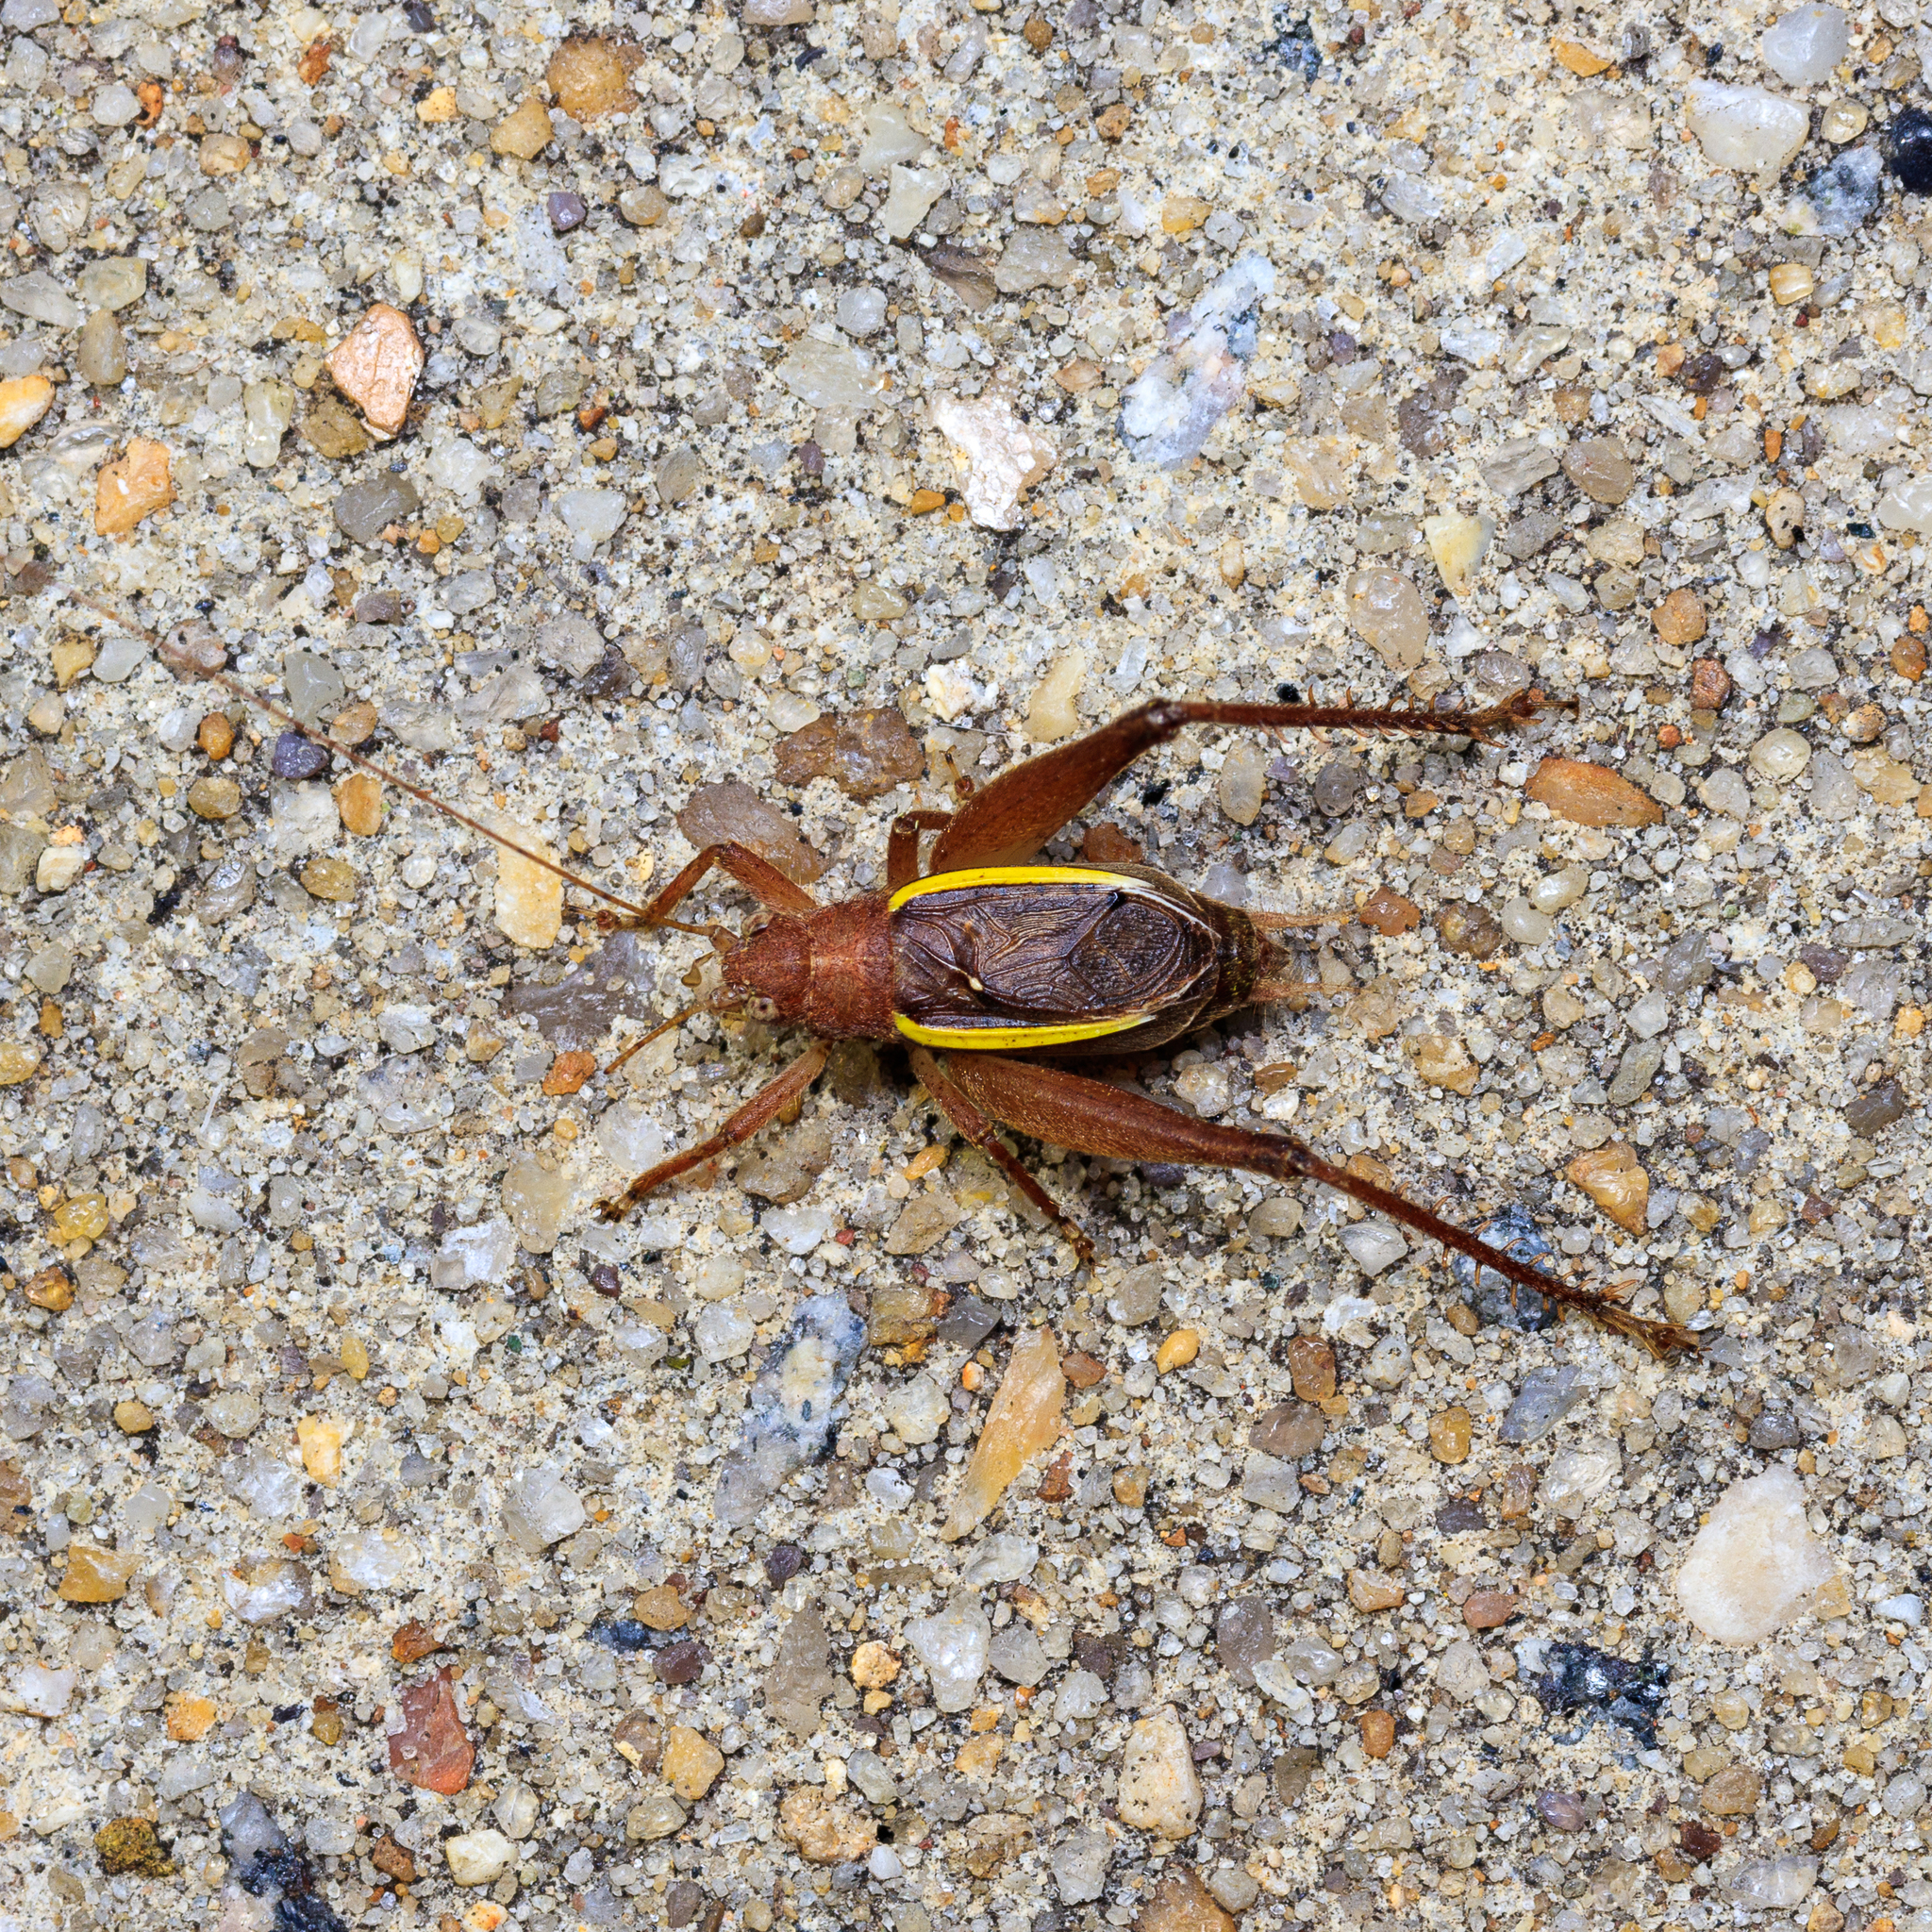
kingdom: Animalia
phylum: Arthropoda
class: Insecta
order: Orthoptera
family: Gryllidae
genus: Hapithus
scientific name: Hapithus agitator
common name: Restless bush cricket
